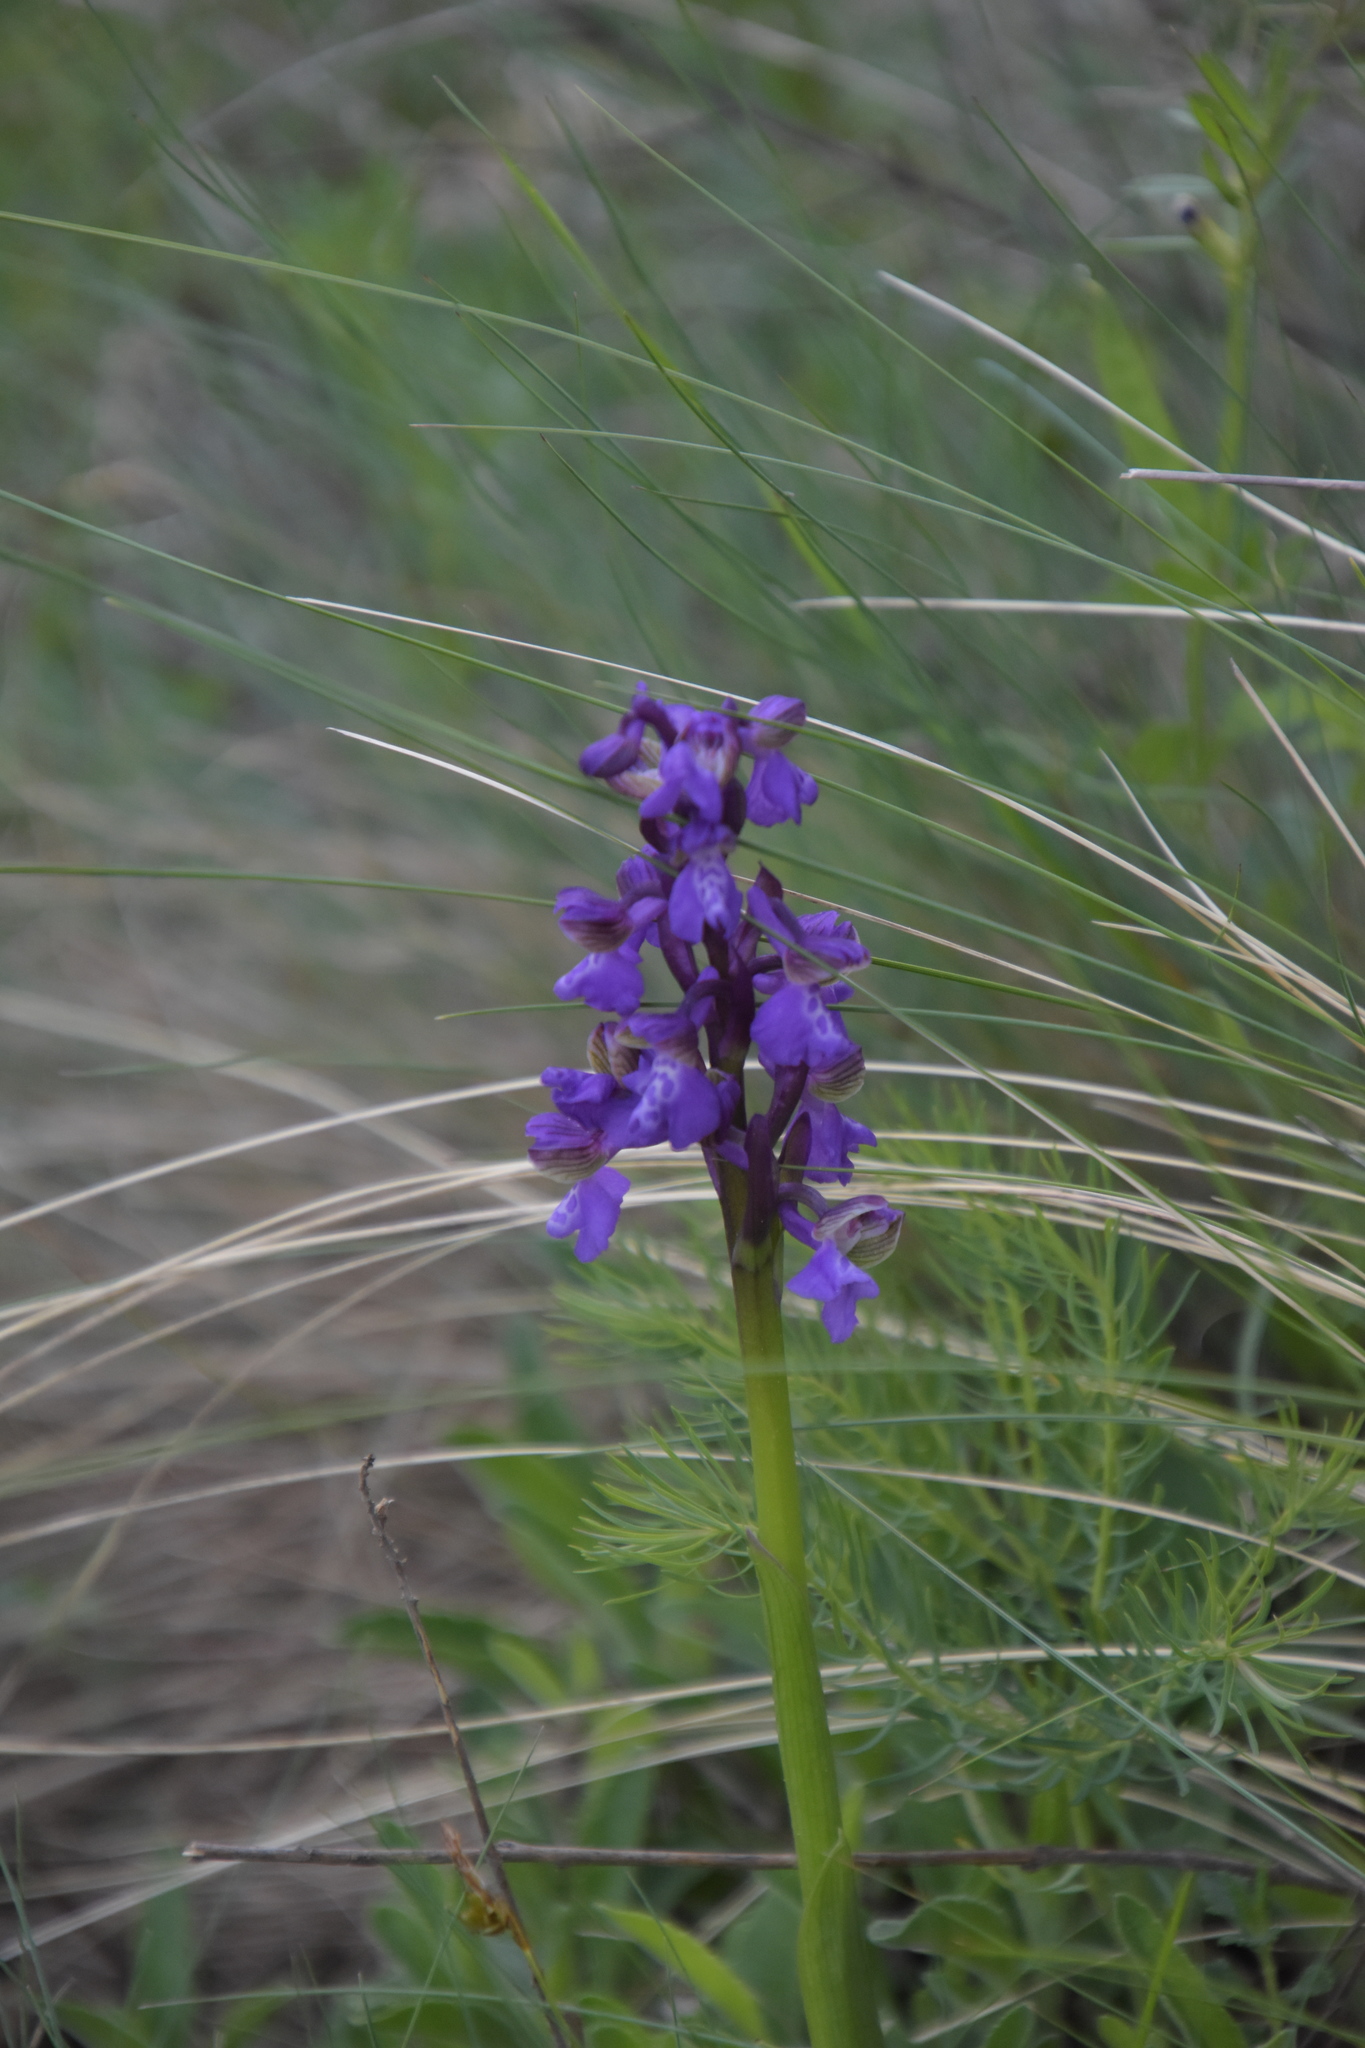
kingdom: Plantae
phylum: Tracheophyta
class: Liliopsida
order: Asparagales
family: Orchidaceae
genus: Anacamptis
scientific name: Anacamptis morio
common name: Green-winged orchid
